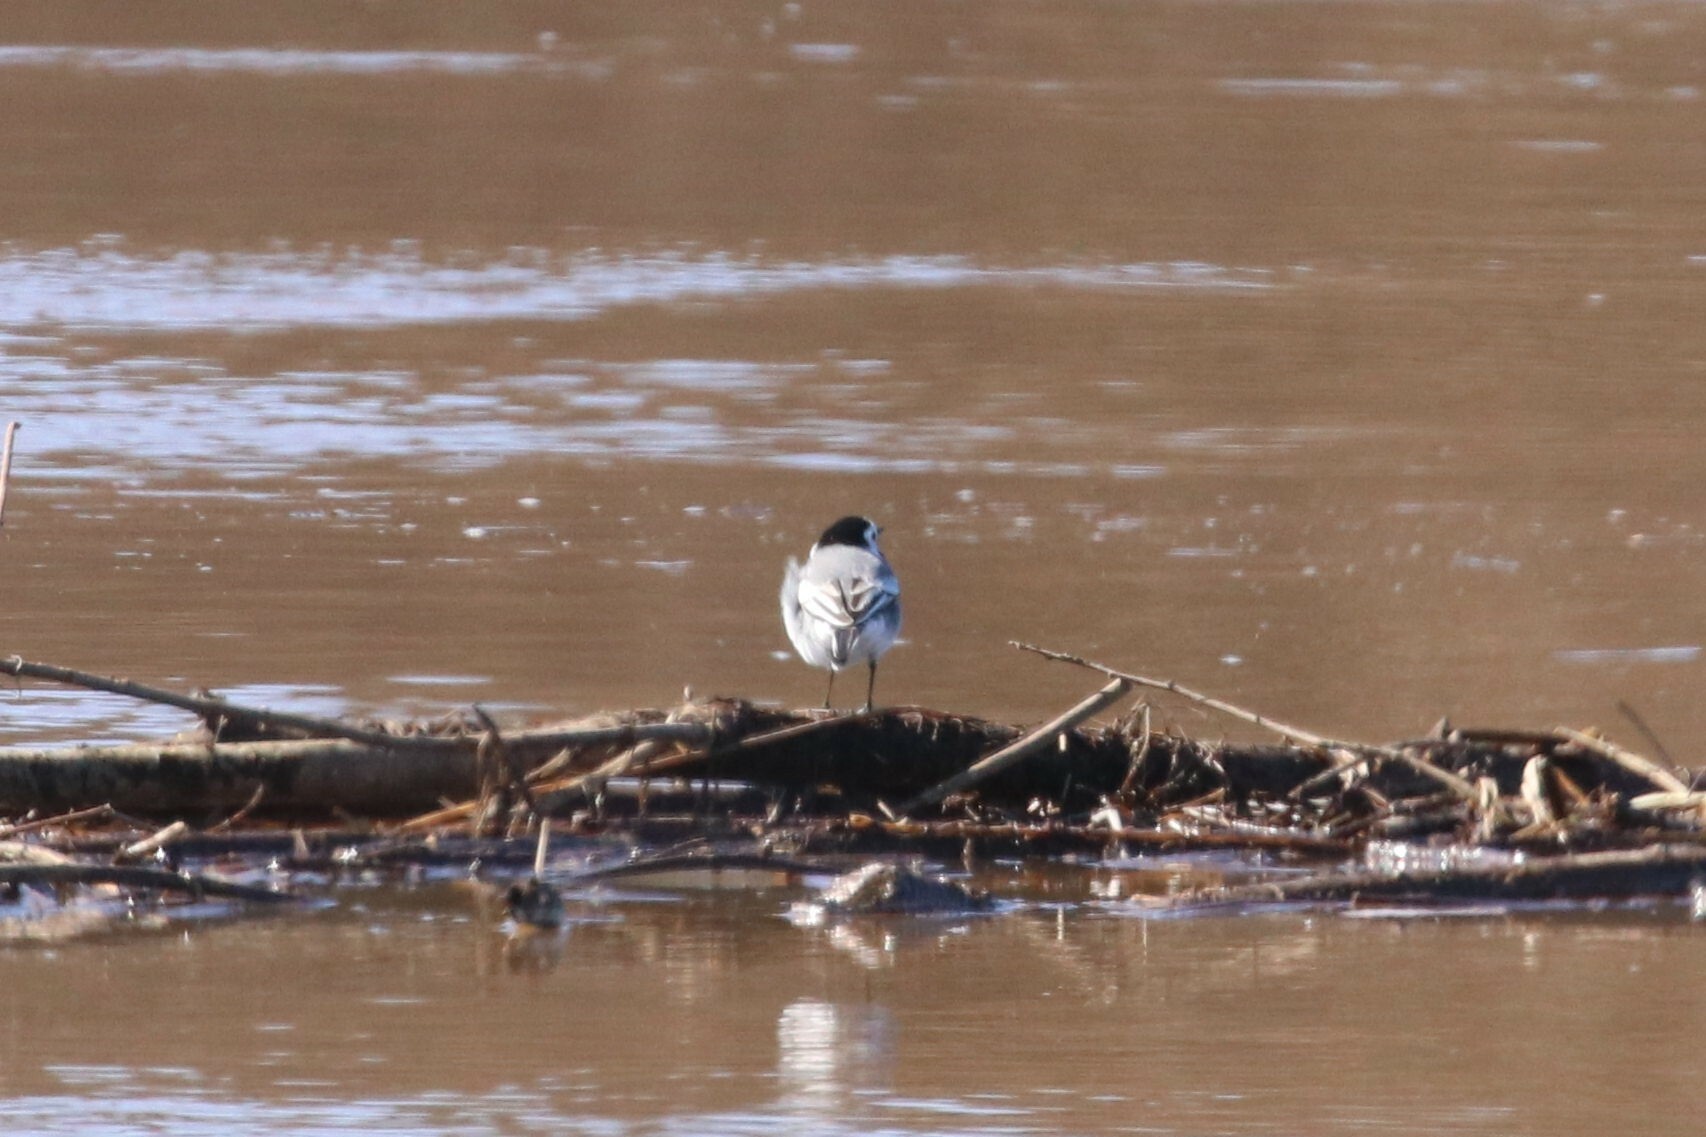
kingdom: Animalia
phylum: Chordata
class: Aves
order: Passeriformes
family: Motacillidae
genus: Motacilla
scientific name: Motacilla alba
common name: White wagtail
